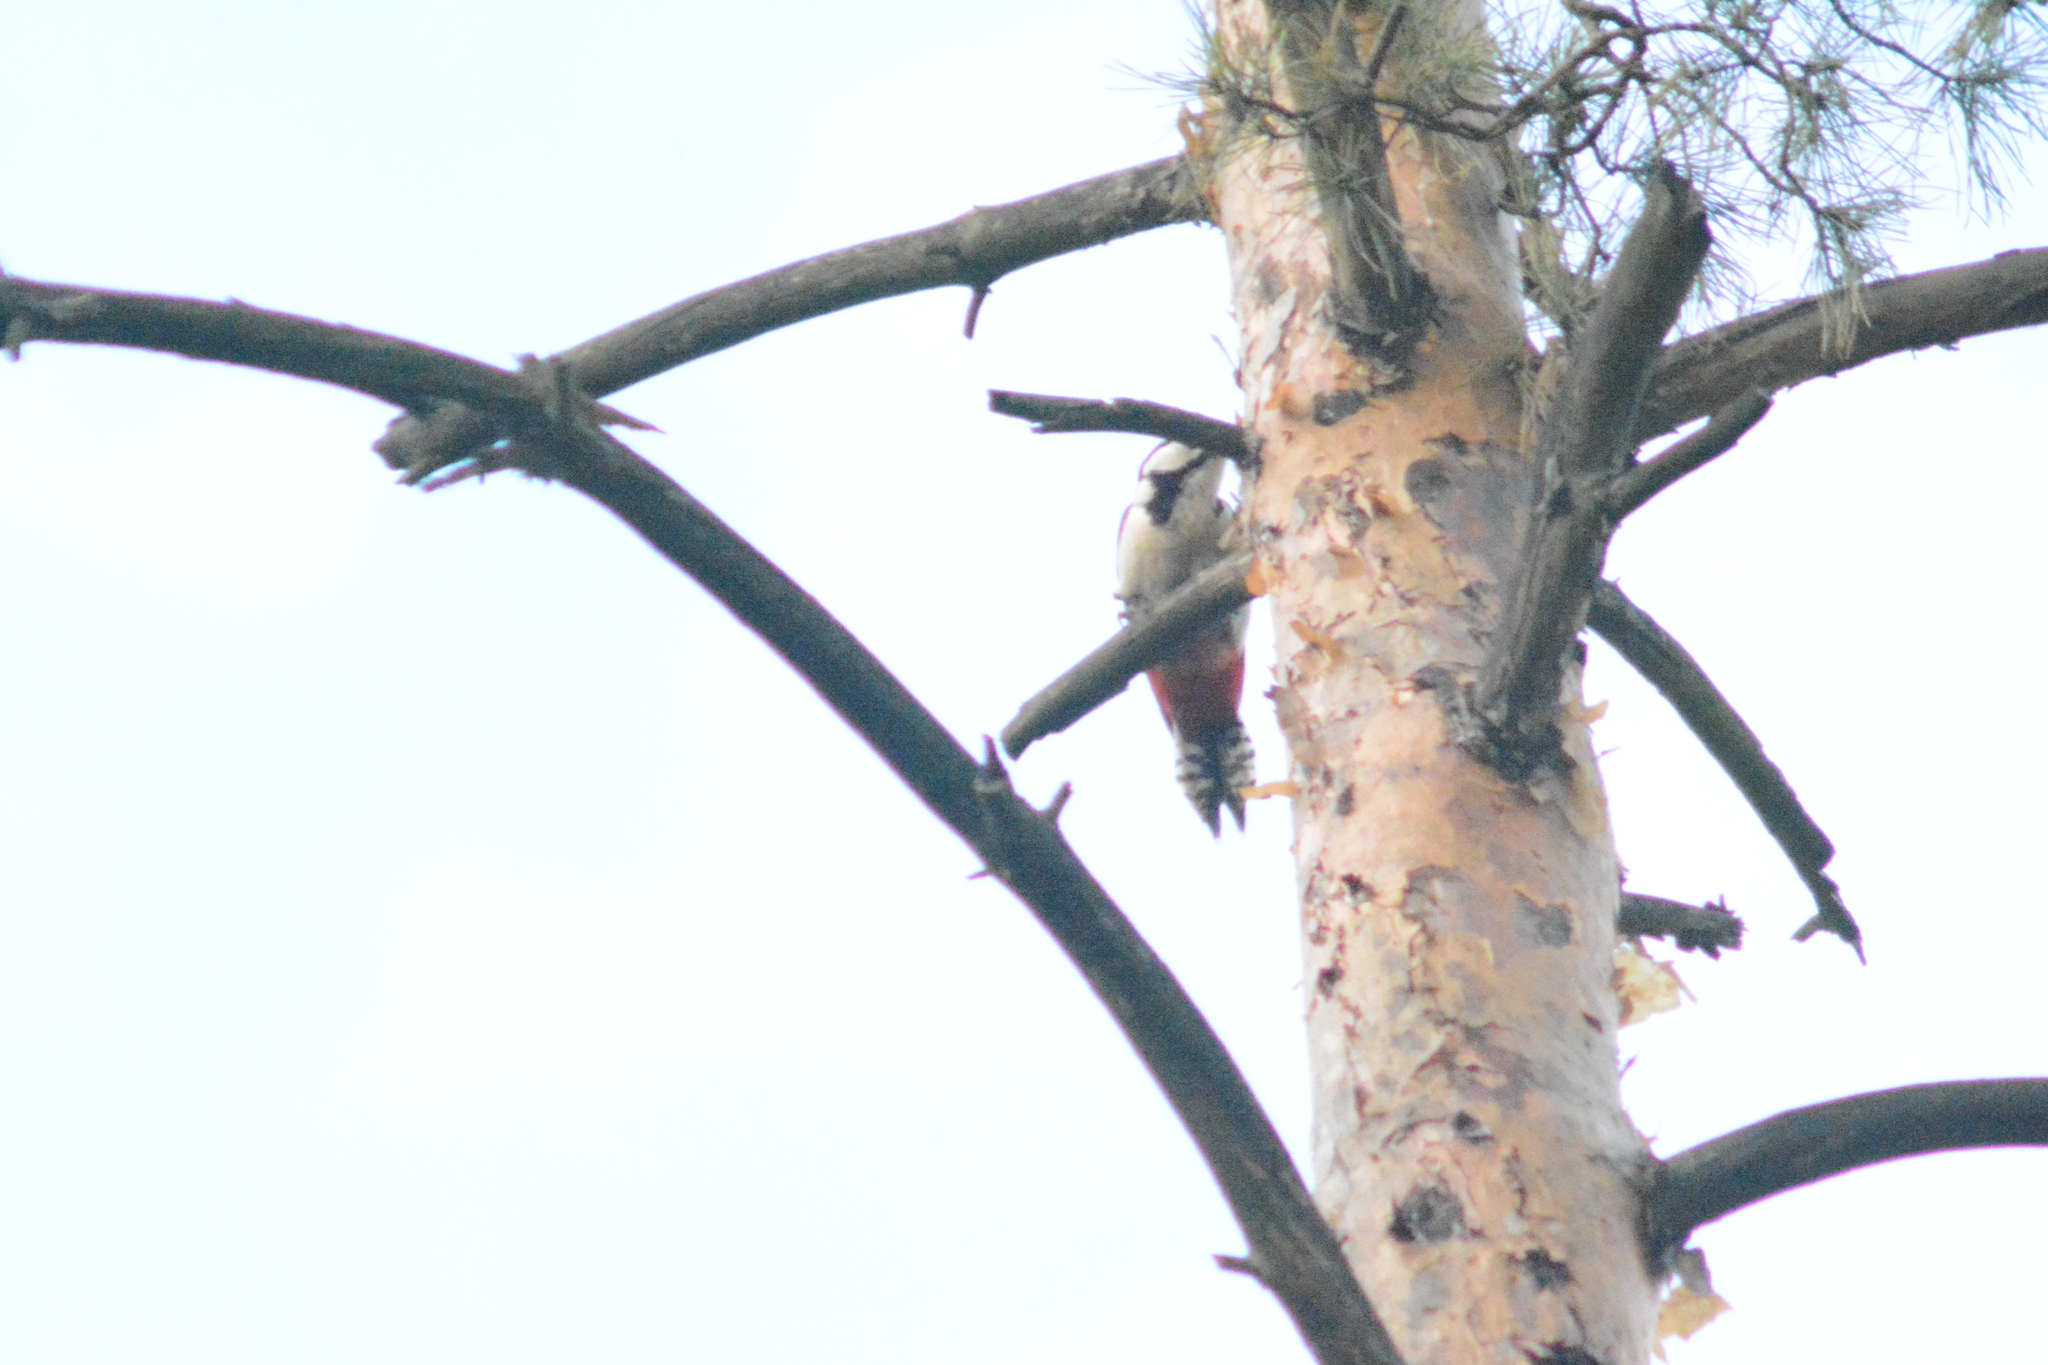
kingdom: Animalia
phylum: Chordata
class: Aves
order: Piciformes
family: Picidae
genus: Dendrocopos
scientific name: Dendrocopos major
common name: Great spotted woodpecker
